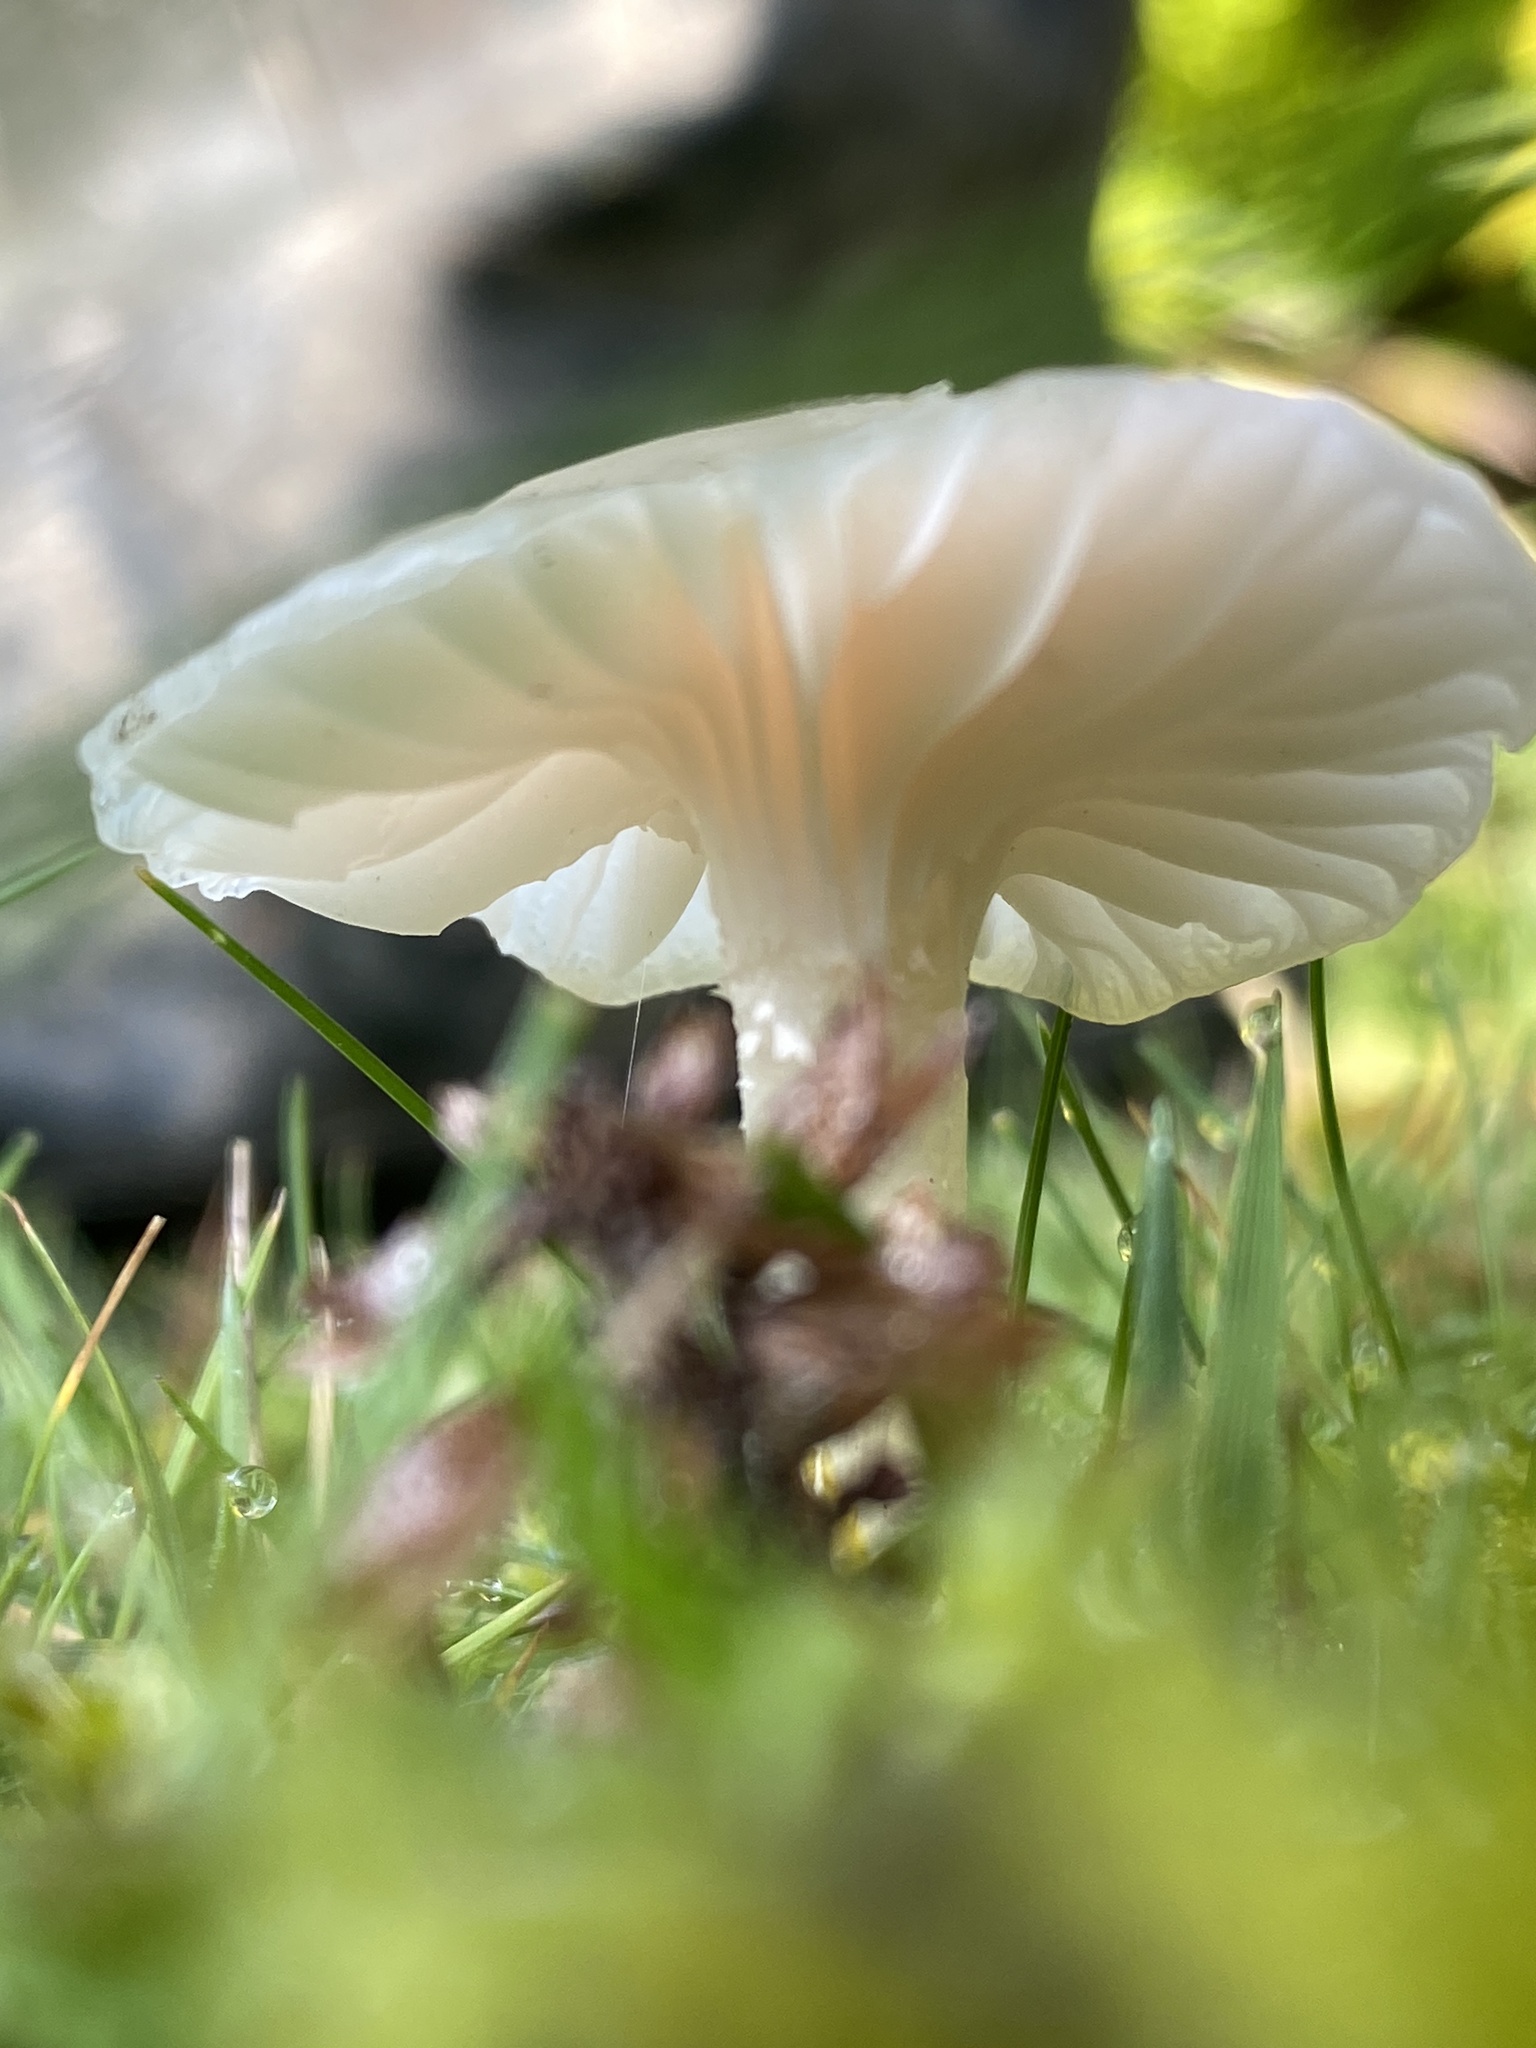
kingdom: Fungi
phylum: Basidiomycota
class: Agaricomycetes
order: Agaricales
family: Hygrophoraceae
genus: Cuphophyllus
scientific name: Cuphophyllus virgineus
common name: Snowy waxcap
